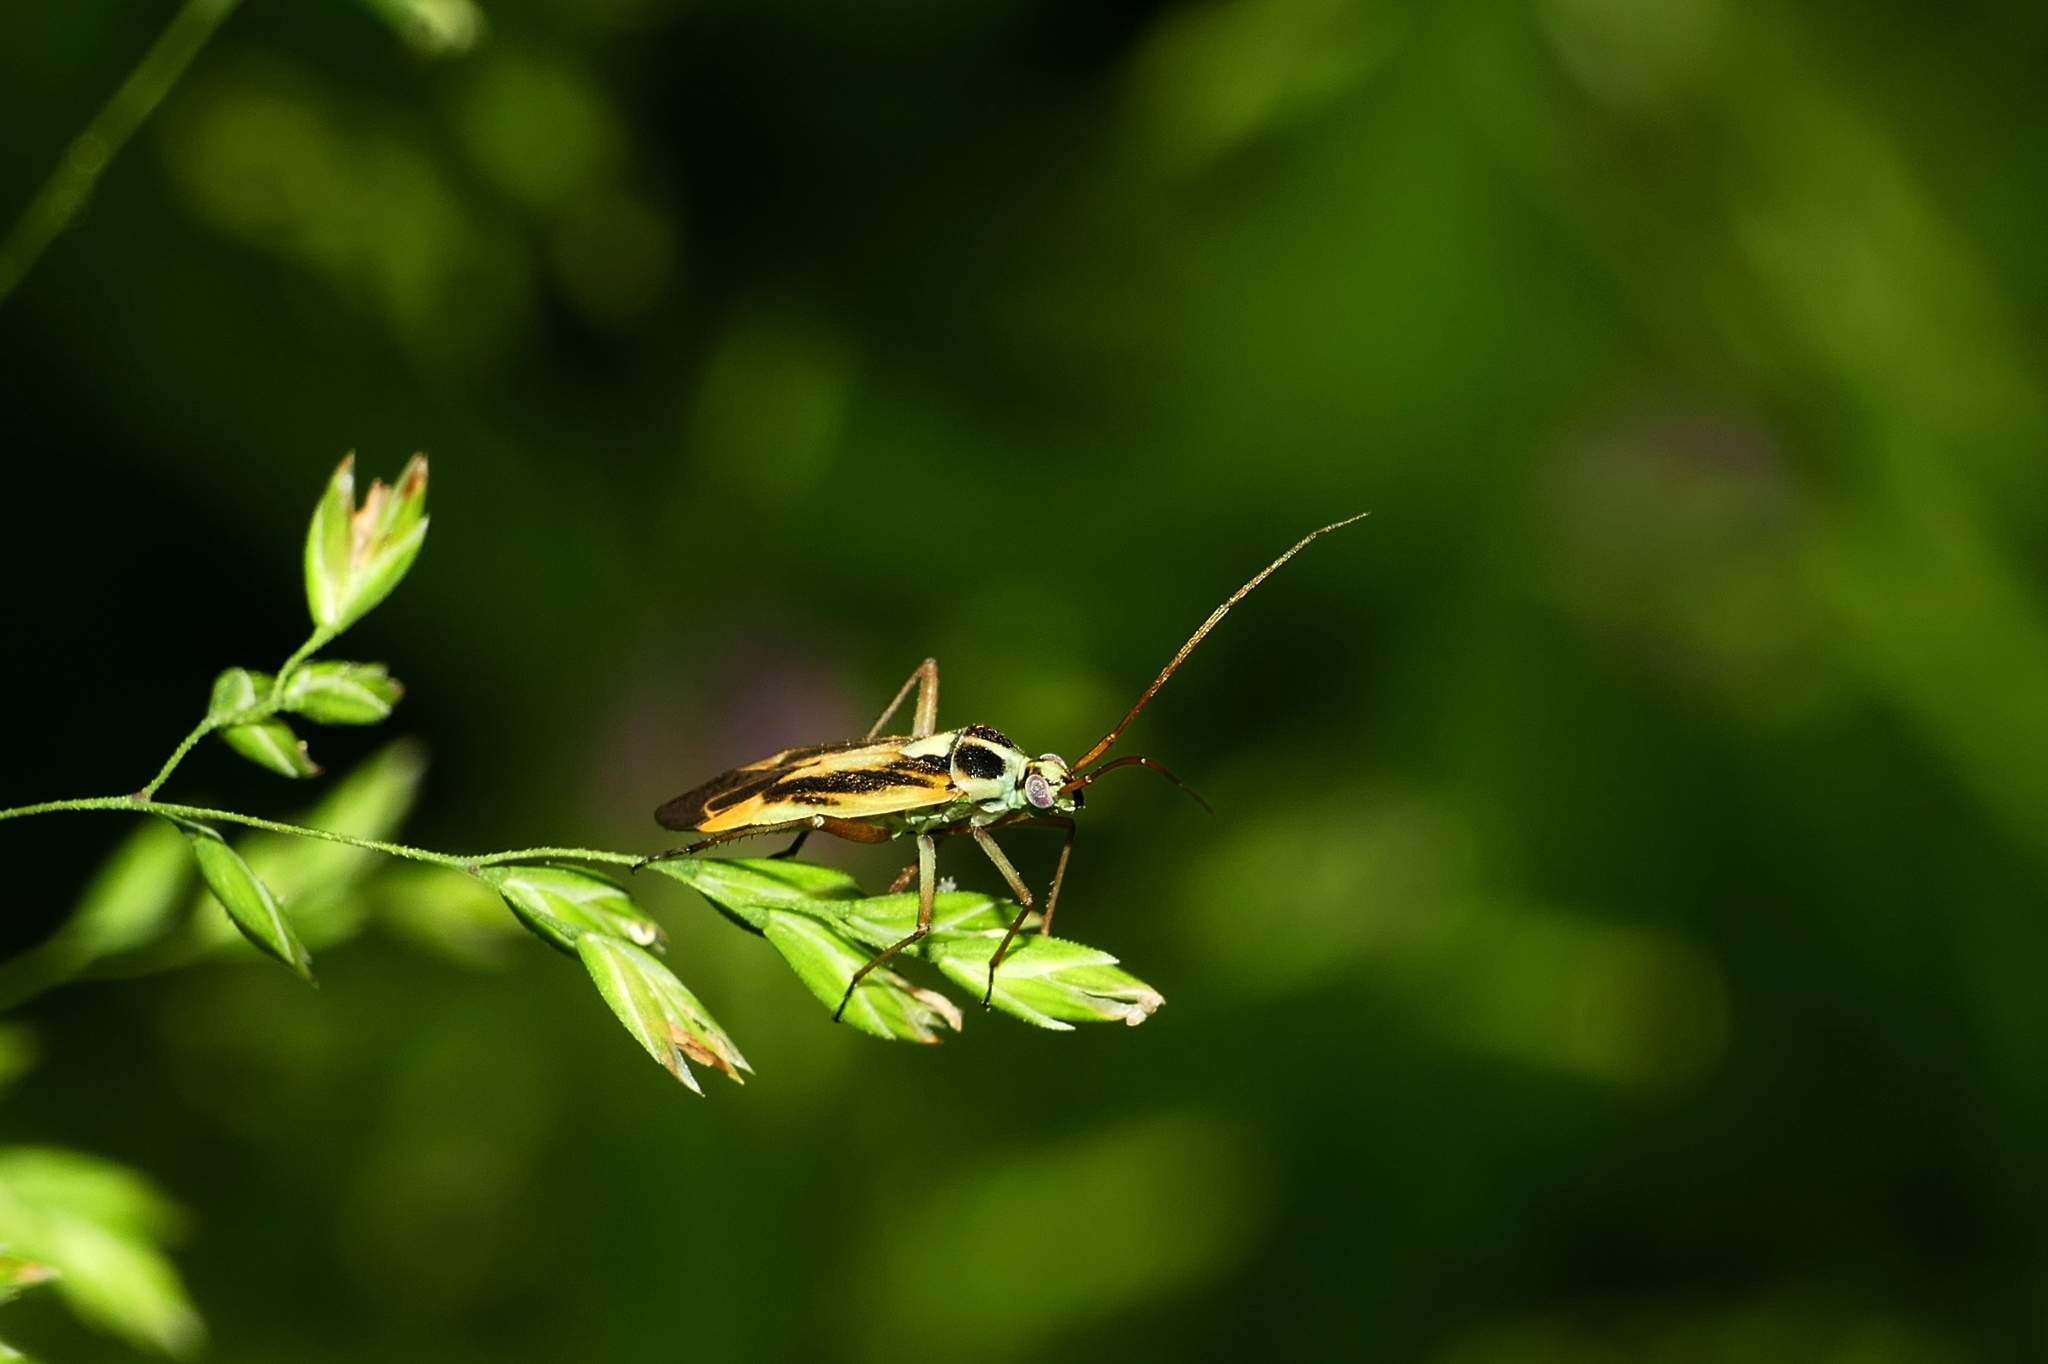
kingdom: Animalia
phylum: Arthropoda
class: Insecta
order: Hemiptera
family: Miridae
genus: Stenotus
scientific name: Stenotus binotatus
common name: Plant bug
